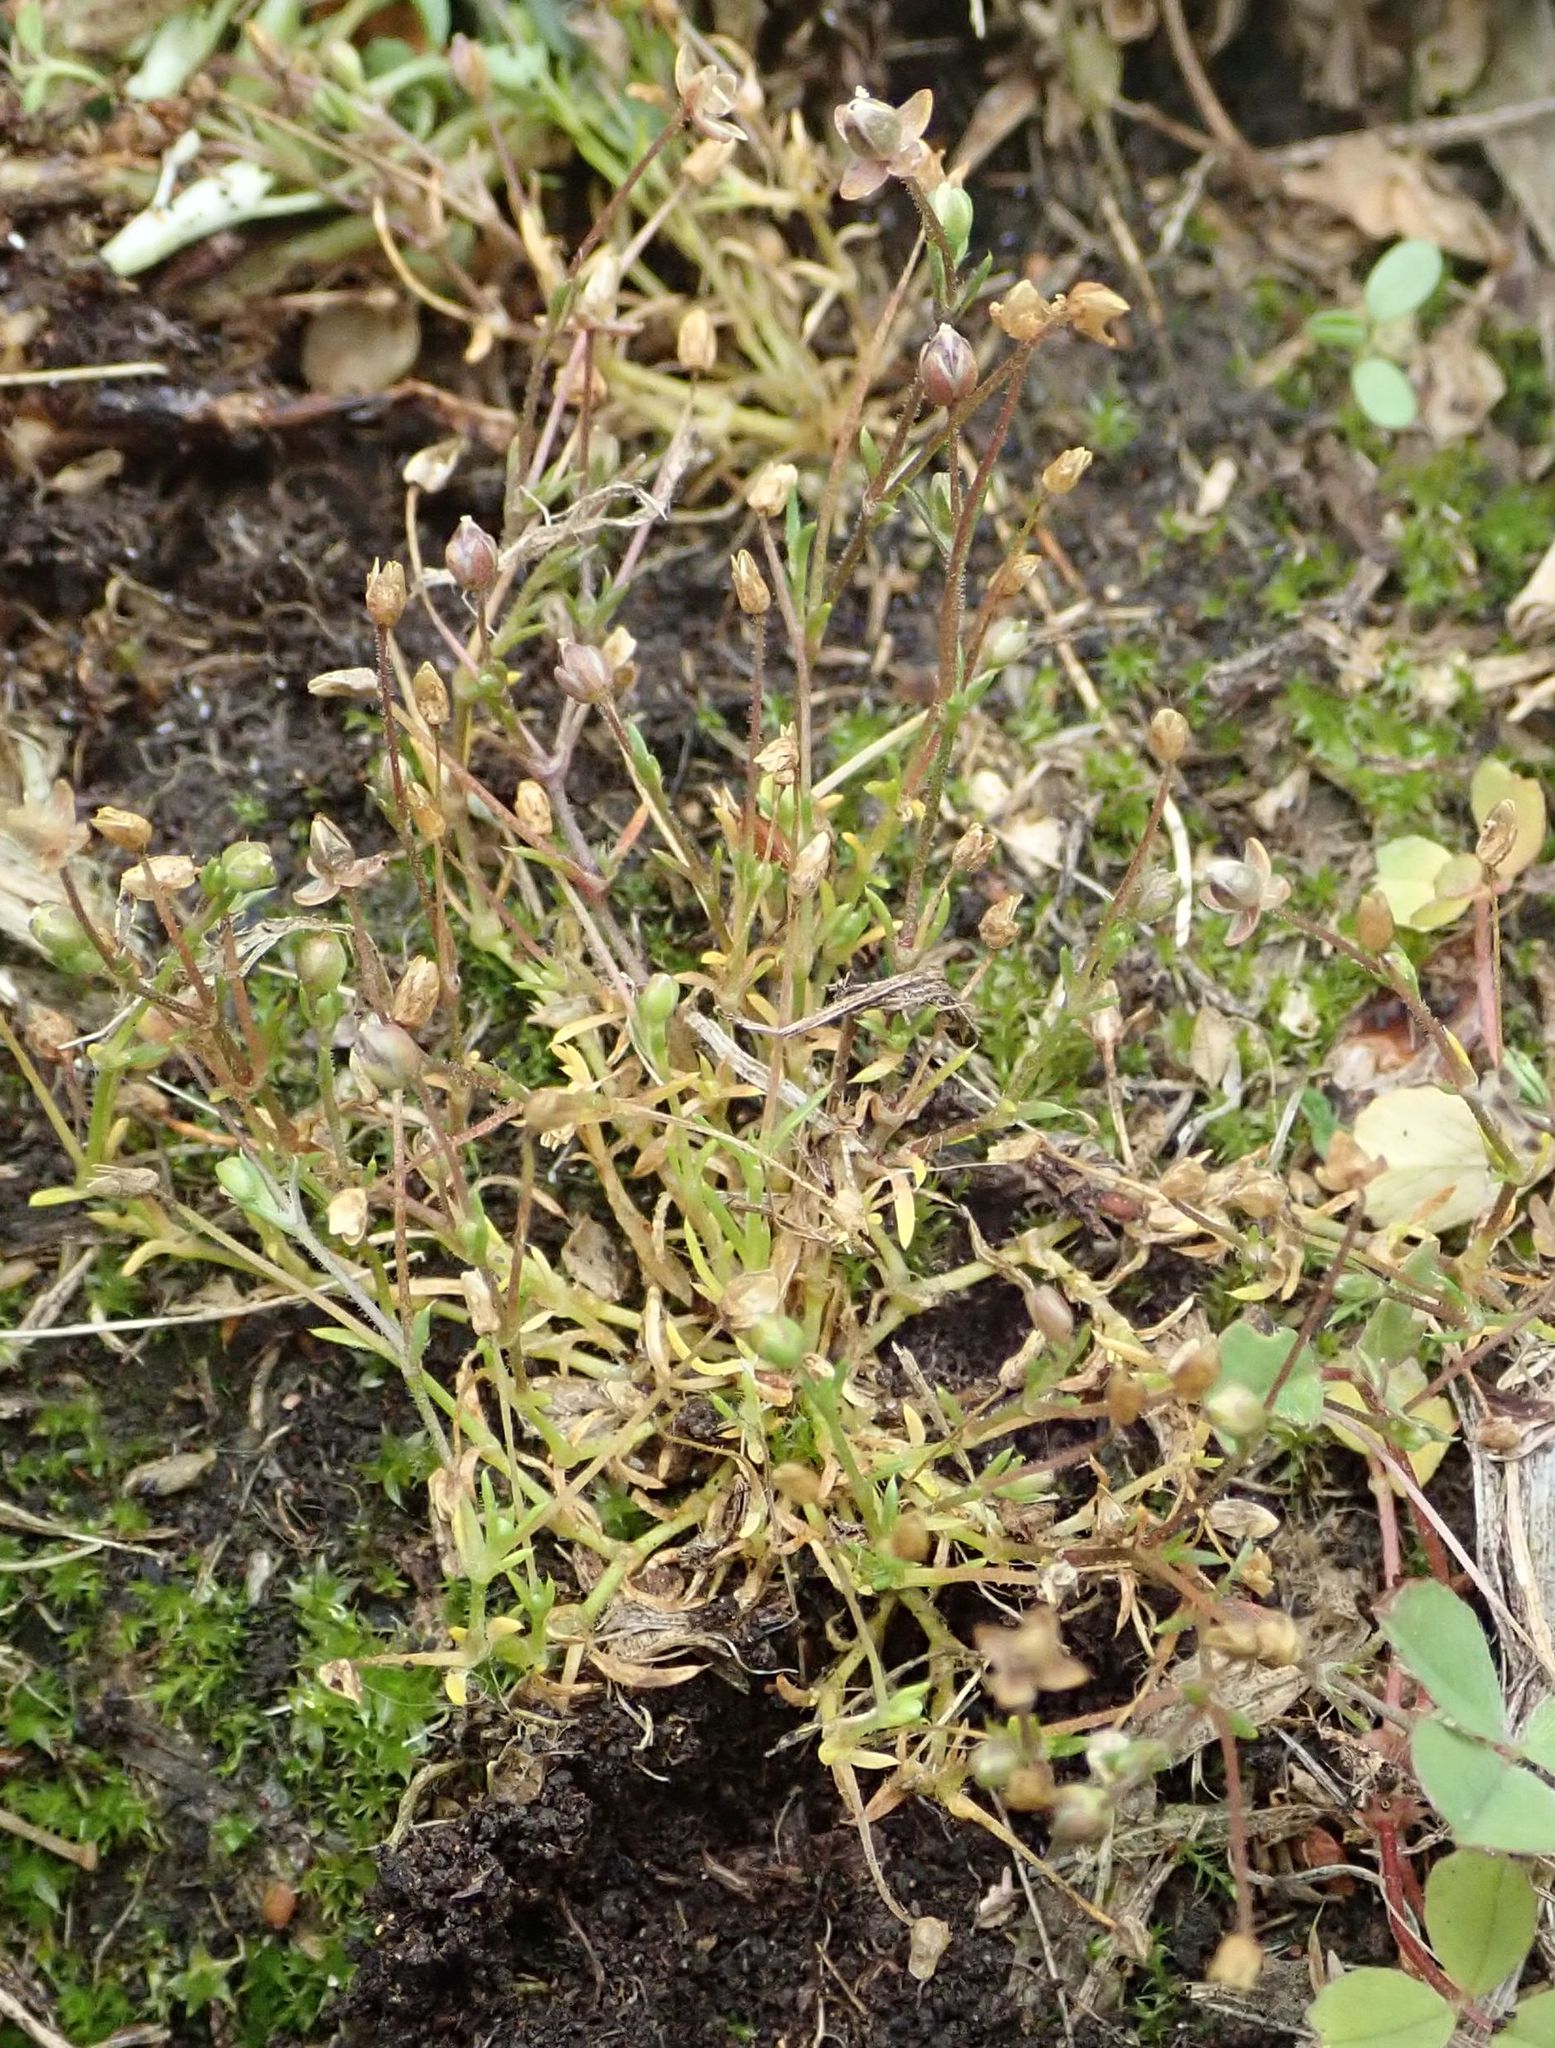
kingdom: Plantae
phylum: Tracheophyta
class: Magnoliopsida
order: Caryophyllales
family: Caryophyllaceae
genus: Sagina
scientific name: Sagina apetala
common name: Annual pearlwort
